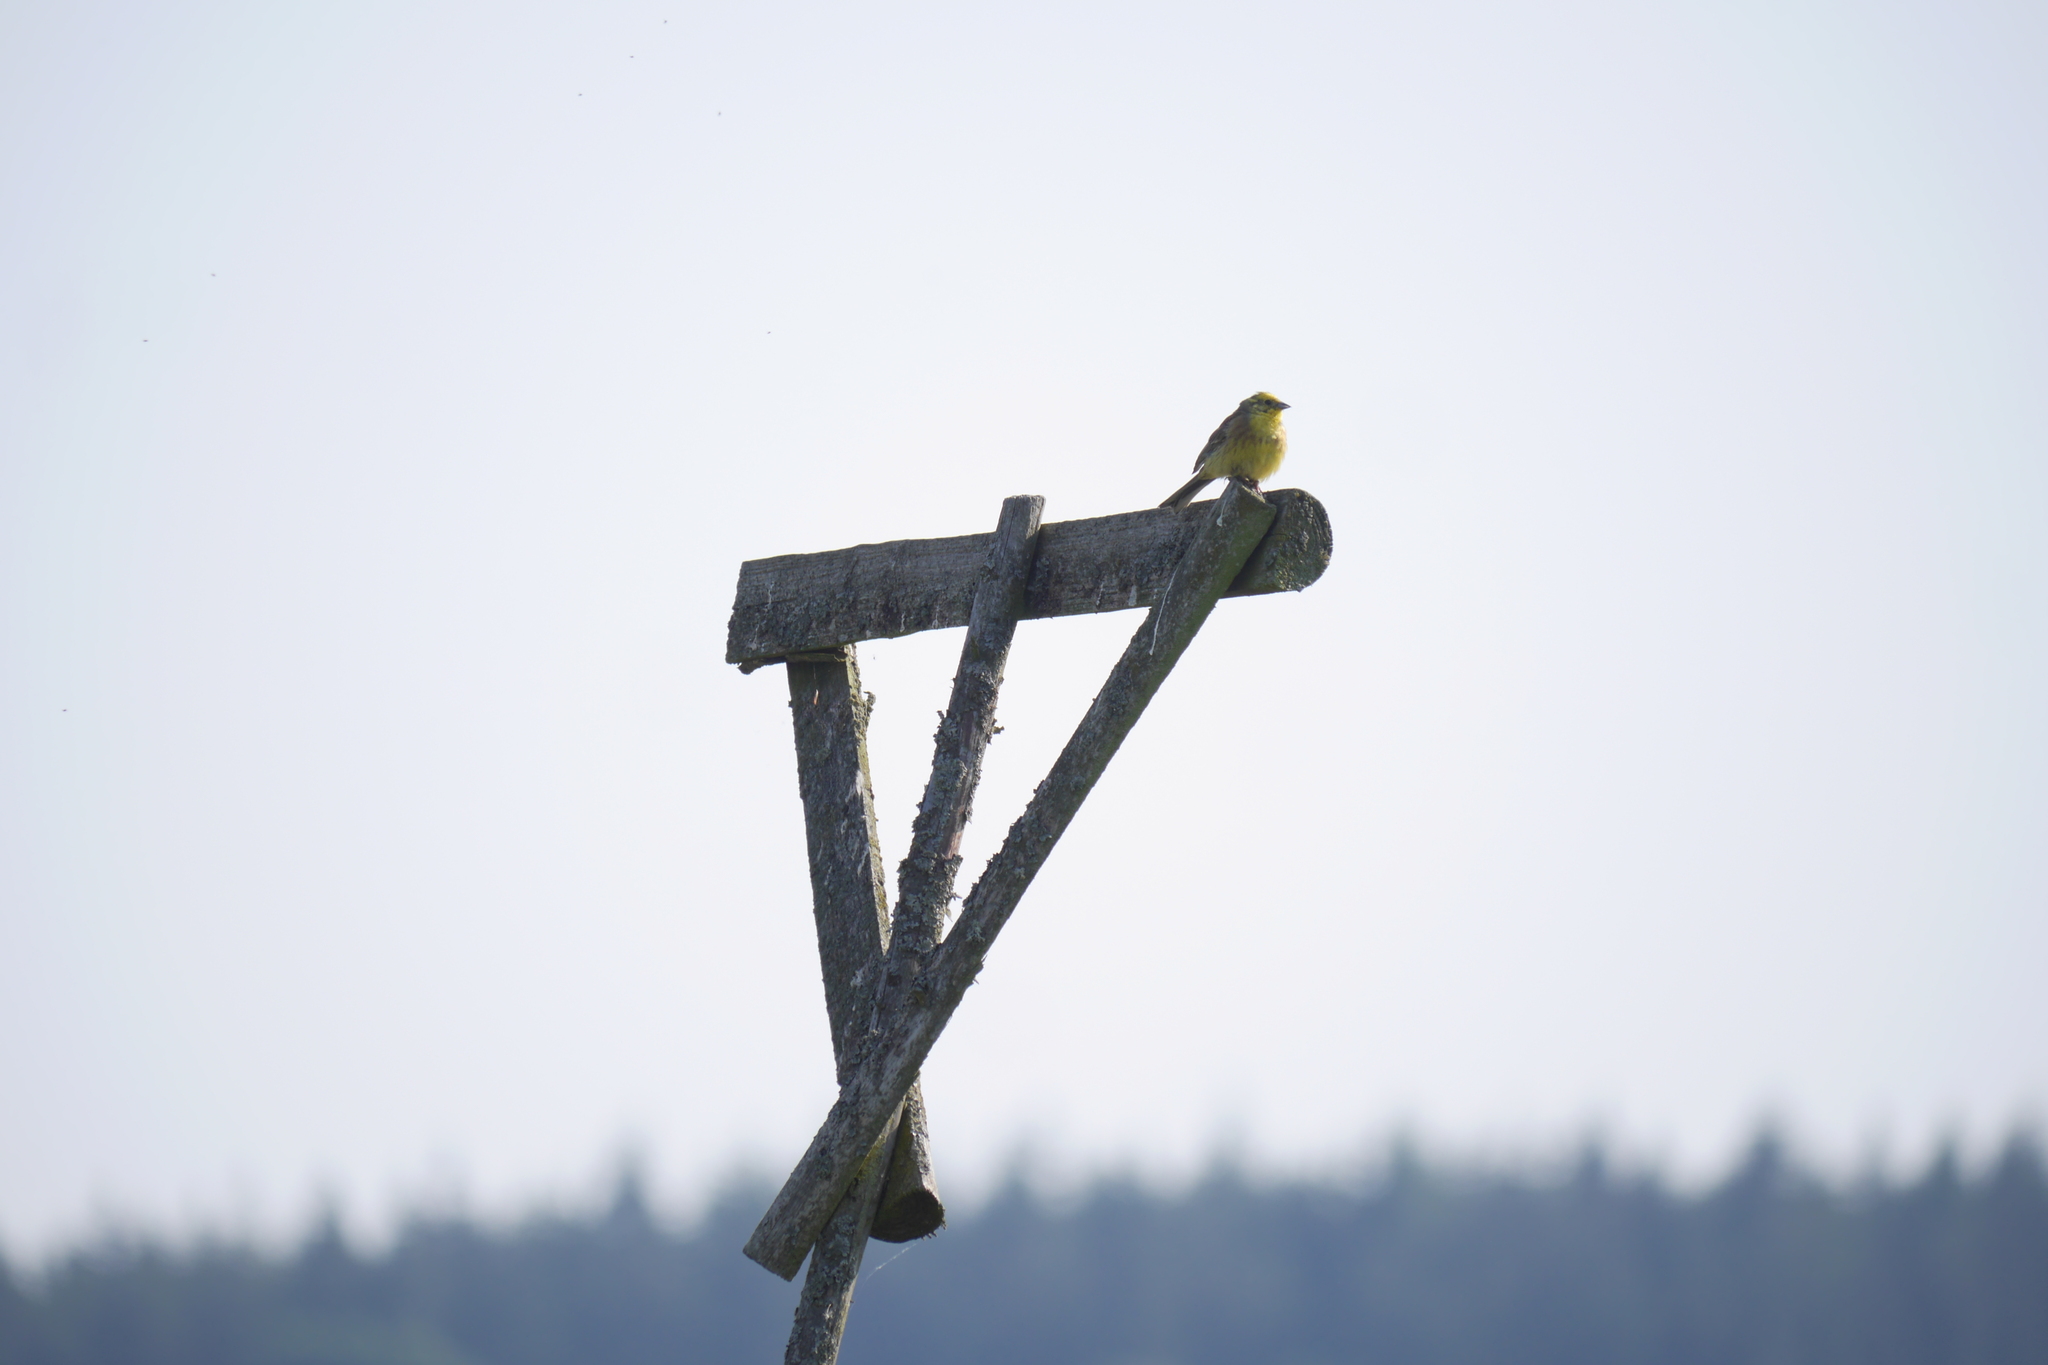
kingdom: Animalia
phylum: Chordata
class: Aves
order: Passeriformes
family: Emberizidae
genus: Emberiza
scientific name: Emberiza citrinella
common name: Yellowhammer
